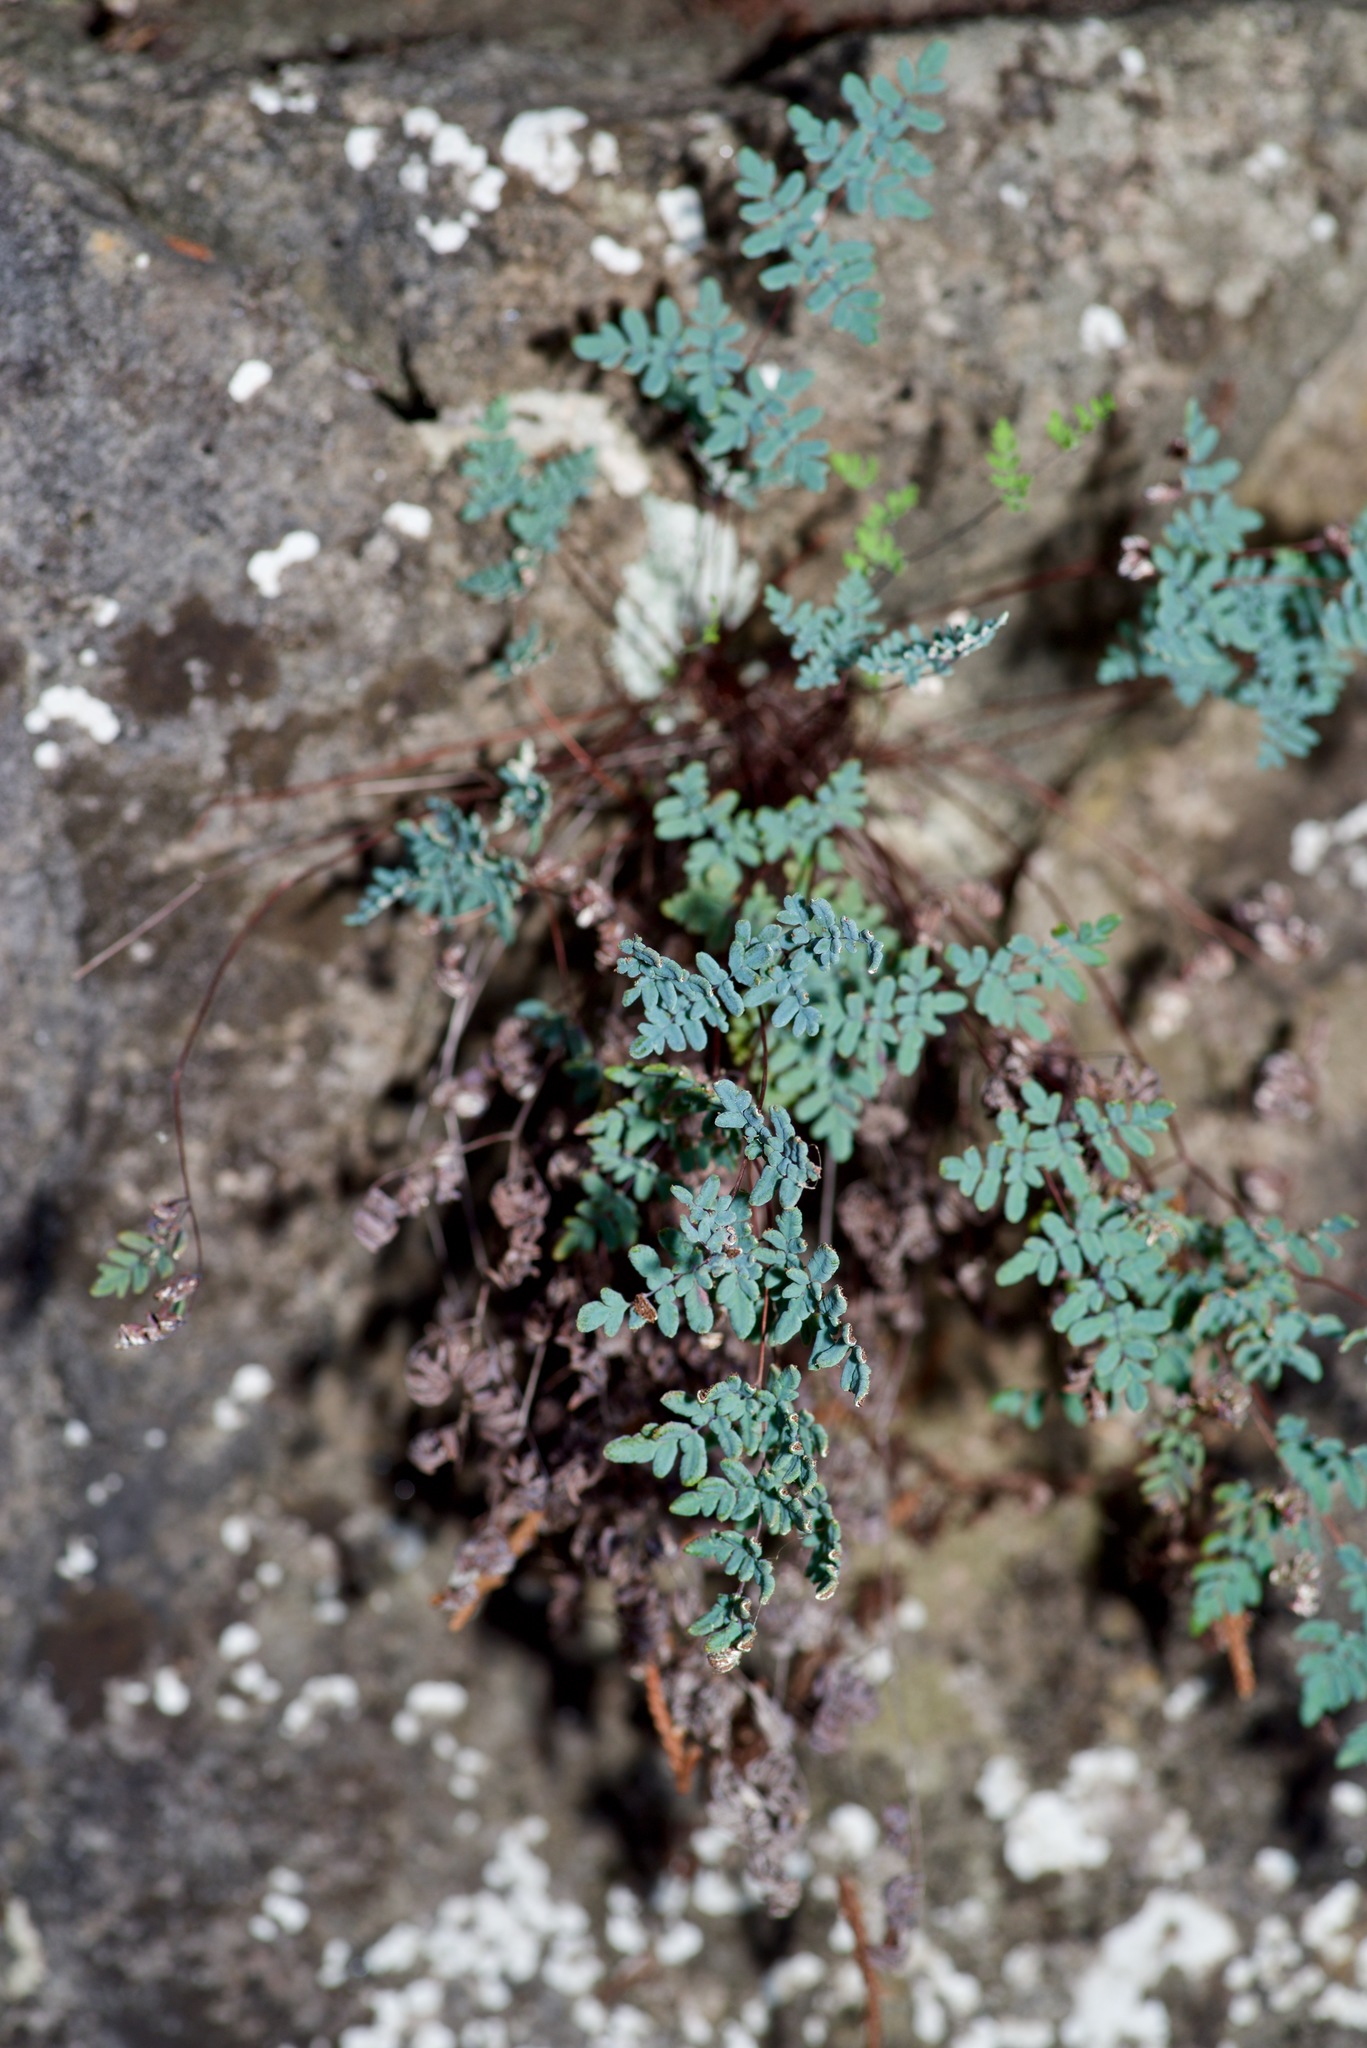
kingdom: Plantae
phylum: Tracheophyta
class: Polypodiopsida
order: Polypodiales
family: Pteridaceae
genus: Argyrochosma
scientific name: Argyrochosma dealbata
